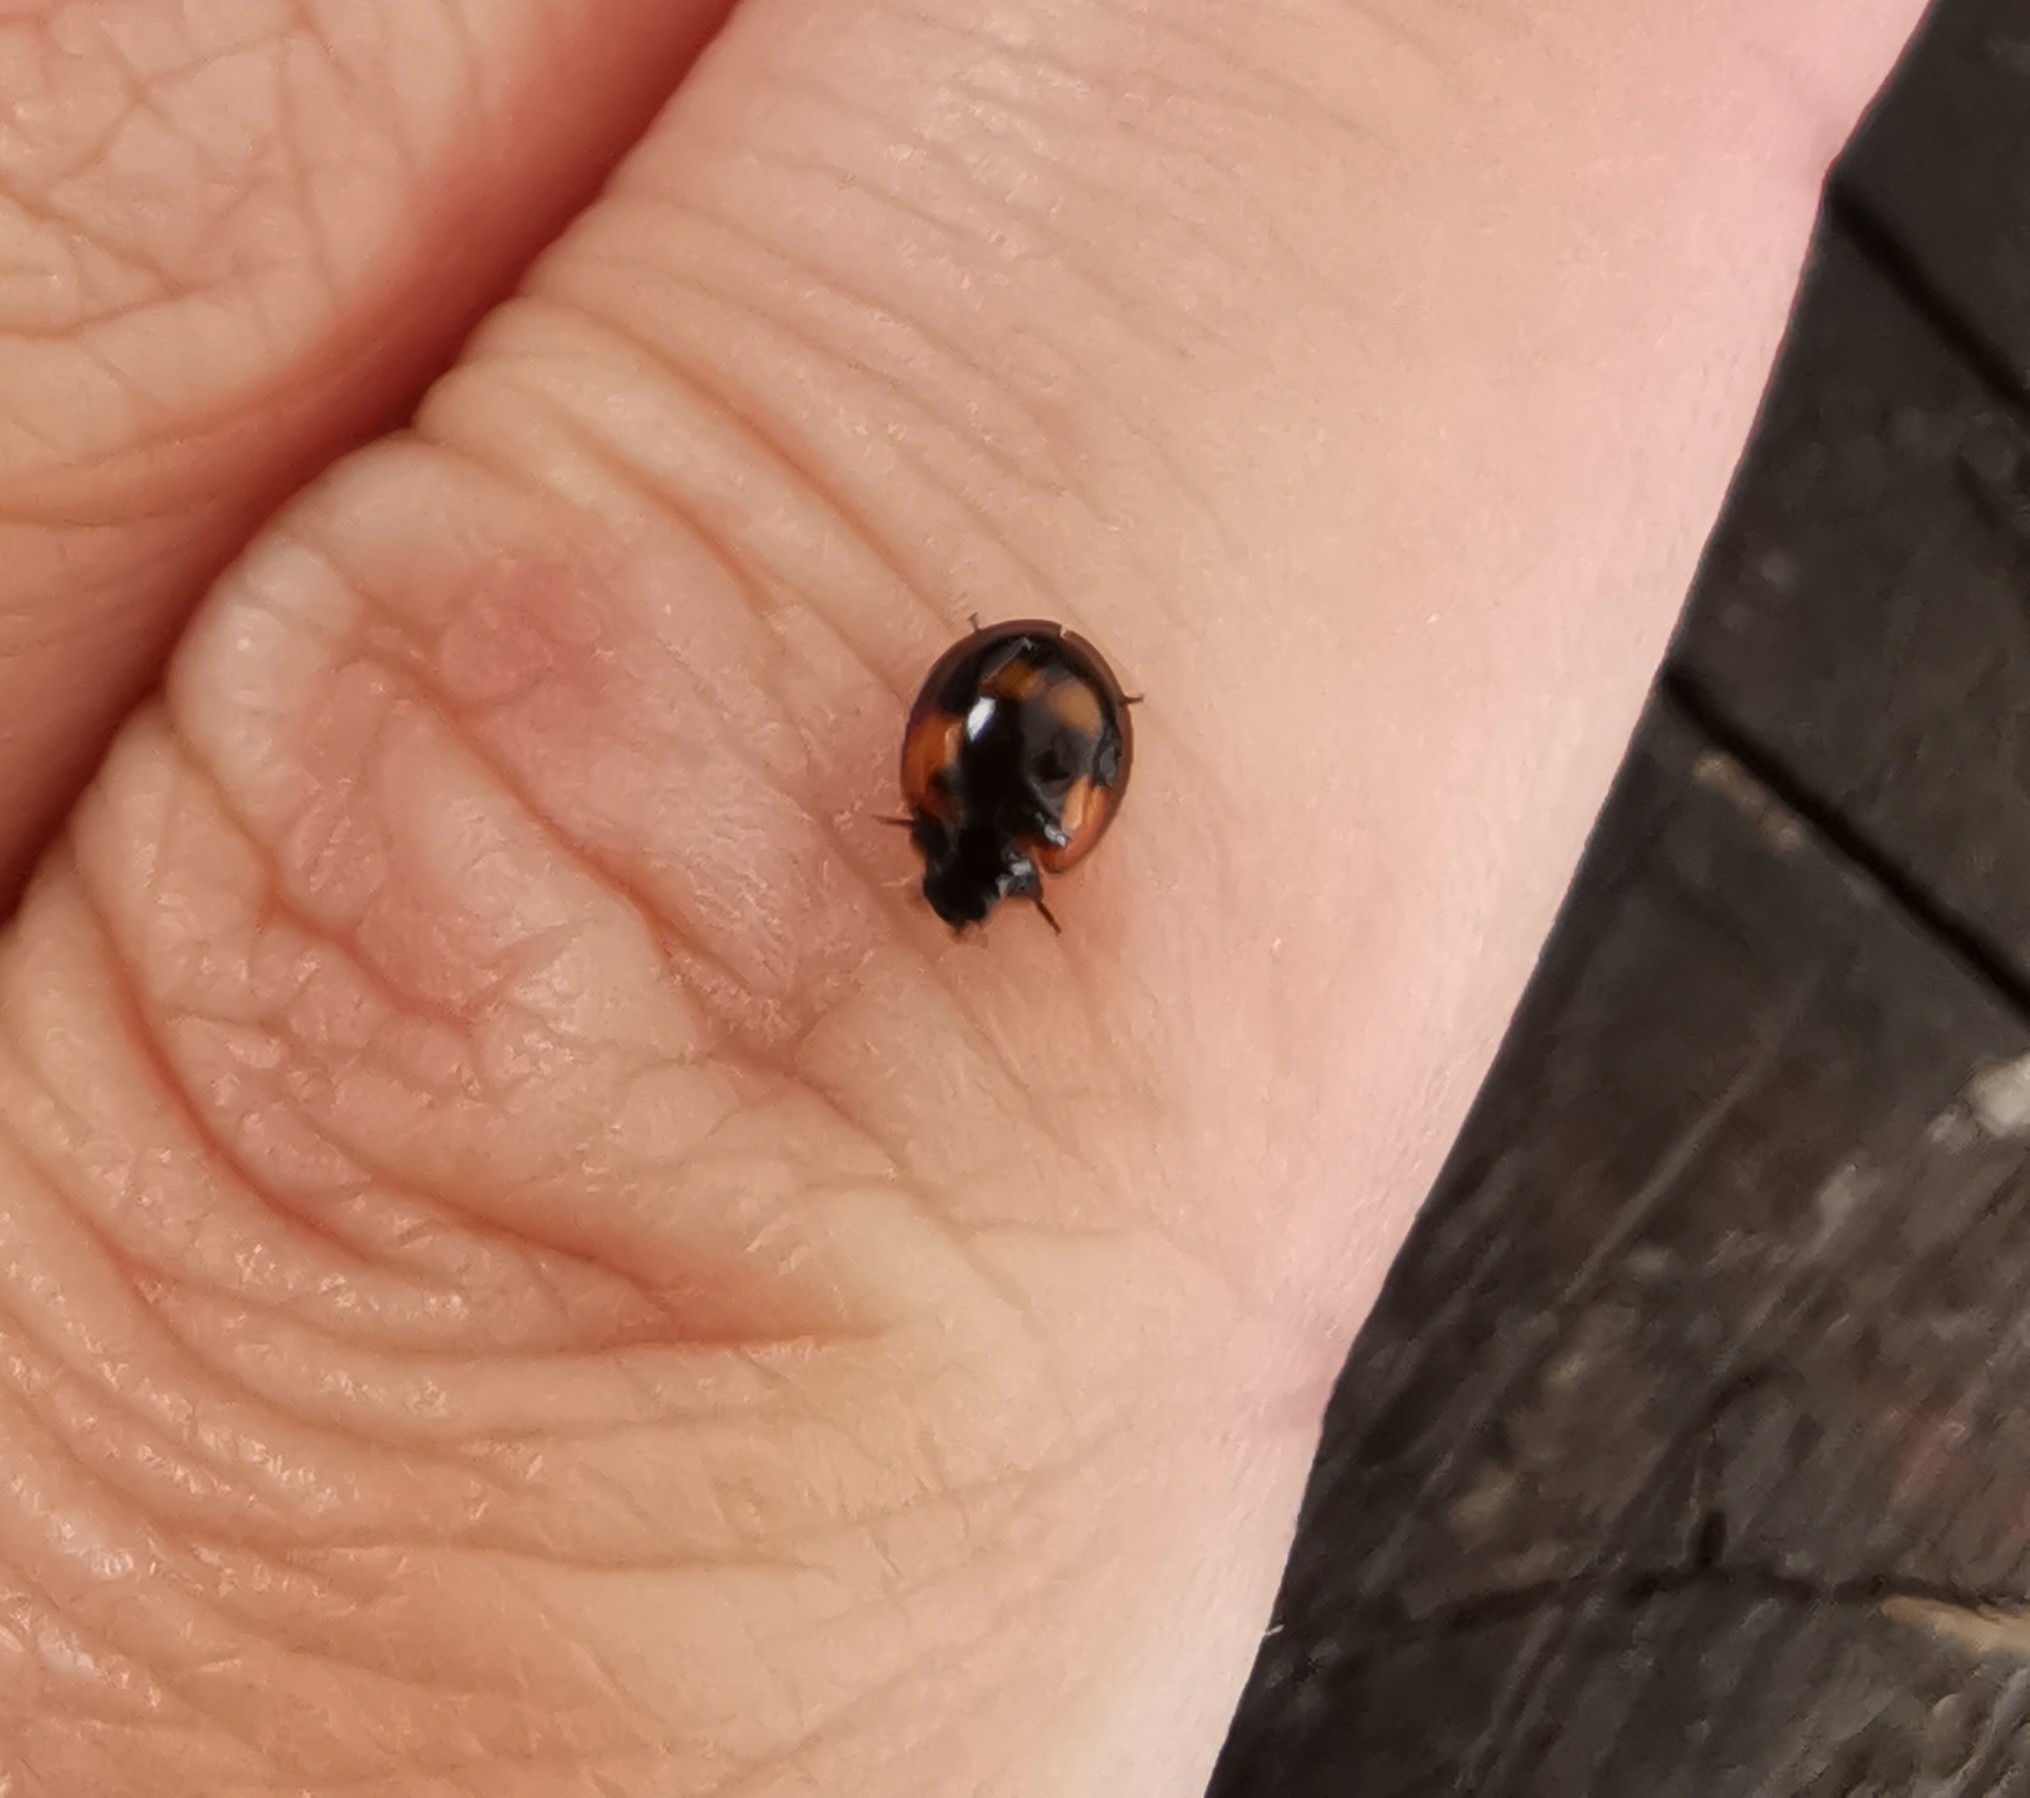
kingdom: Animalia
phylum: Arthropoda
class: Insecta
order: Coleoptera
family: Coccinellidae
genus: Brumus
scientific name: Brumus quadripustulatus
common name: Ladybird beetle
